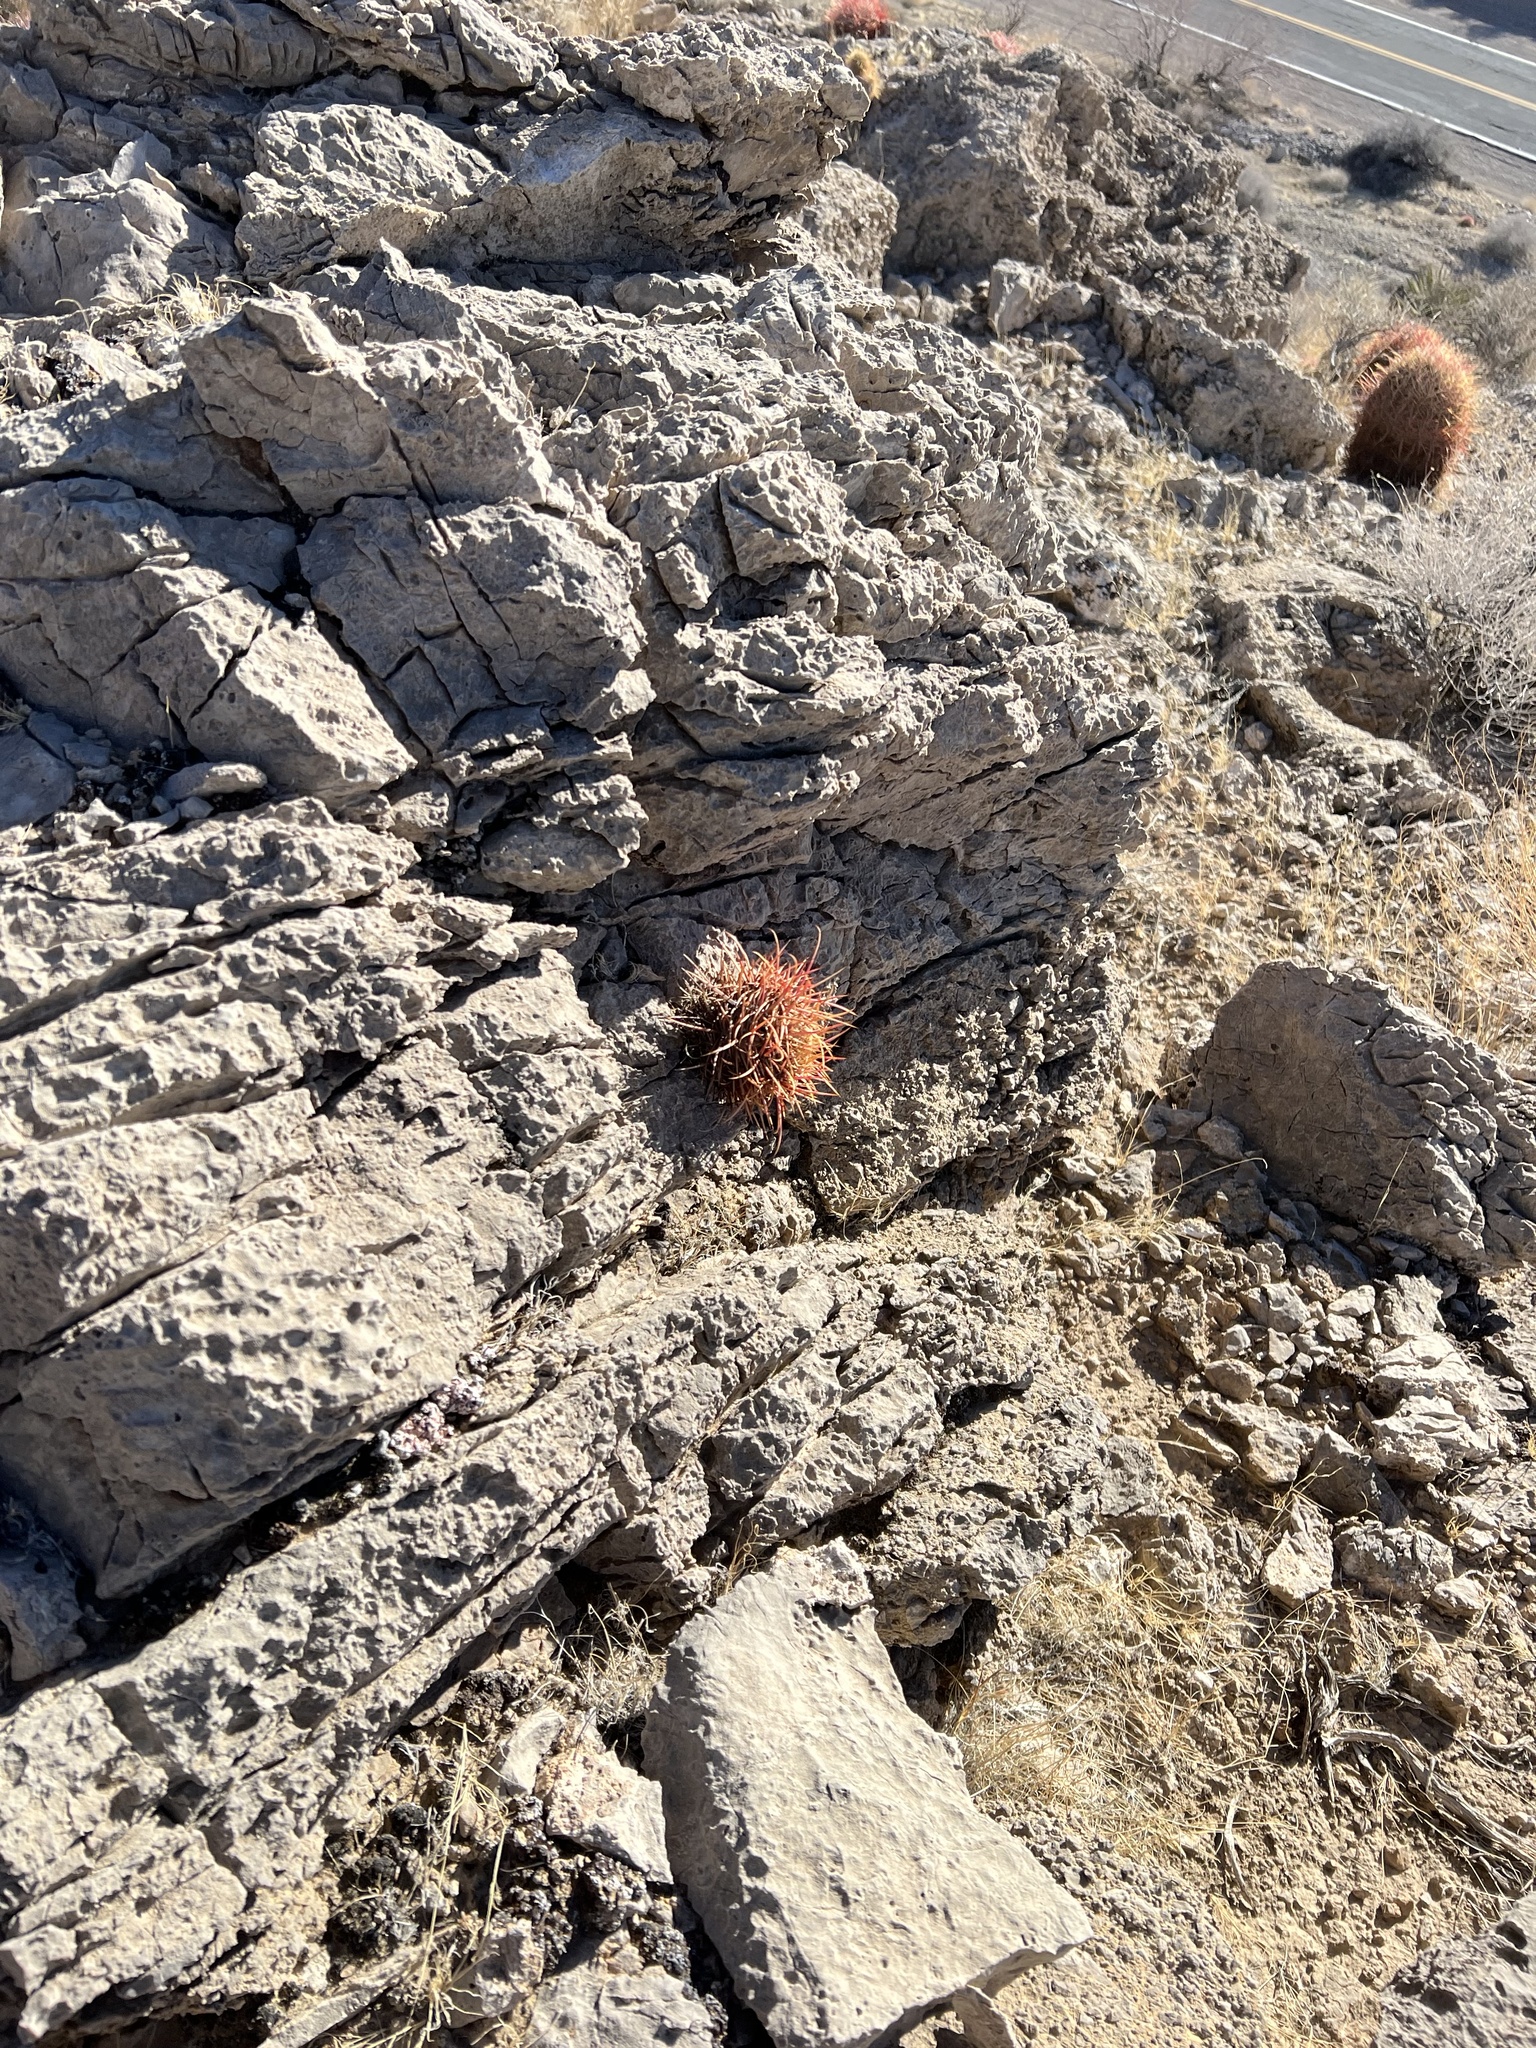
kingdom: Plantae
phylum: Tracheophyta
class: Magnoliopsida
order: Caryophyllales
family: Cactaceae
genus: Ferocactus
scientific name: Ferocactus cylindraceus
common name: California barrel cactus
